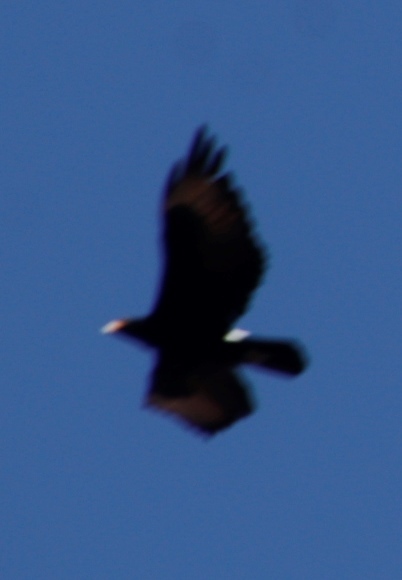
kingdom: Animalia
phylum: Chordata
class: Aves
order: Accipitriformes
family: Accipitridae
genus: Aquila
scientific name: Aquila verreauxii
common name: Verreaux's eagle
